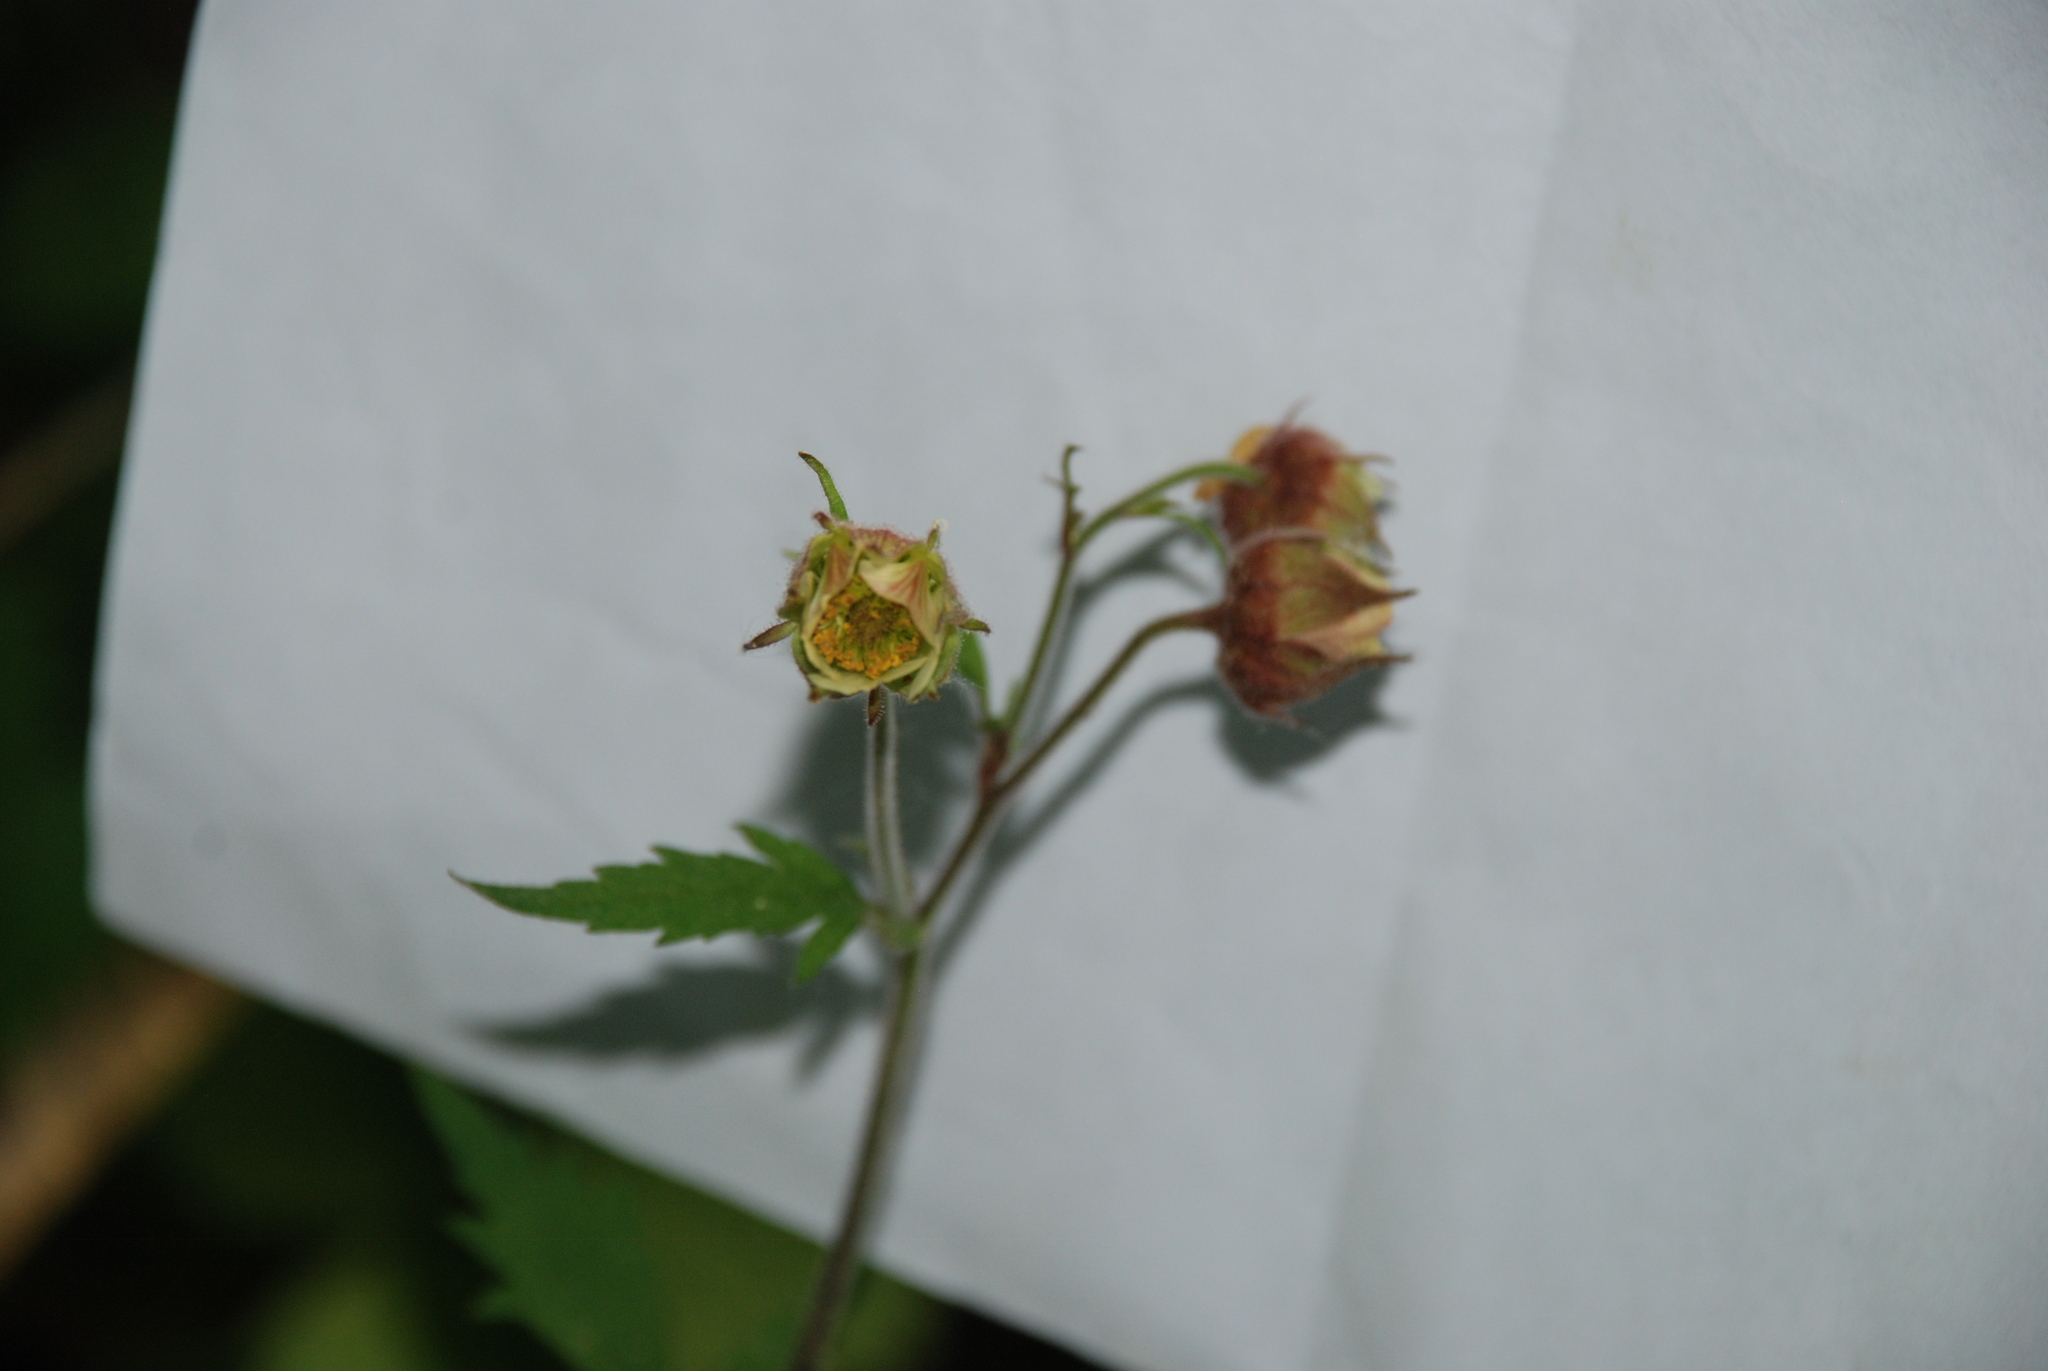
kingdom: Plantae
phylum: Tracheophyta
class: Magnoliopsida
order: Rosales
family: Rosaceae
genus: Geum
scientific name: Geum rivale
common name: Water avens
